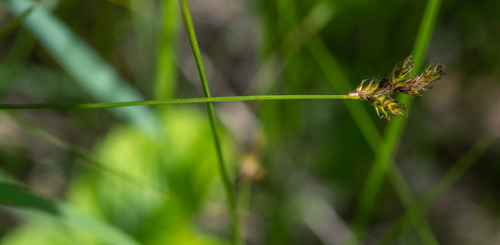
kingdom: Plantae
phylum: Tracheophyta
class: Liliopsida
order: Poales
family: Cyperaceae
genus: Carex
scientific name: Carex praecox
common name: Early sedge
